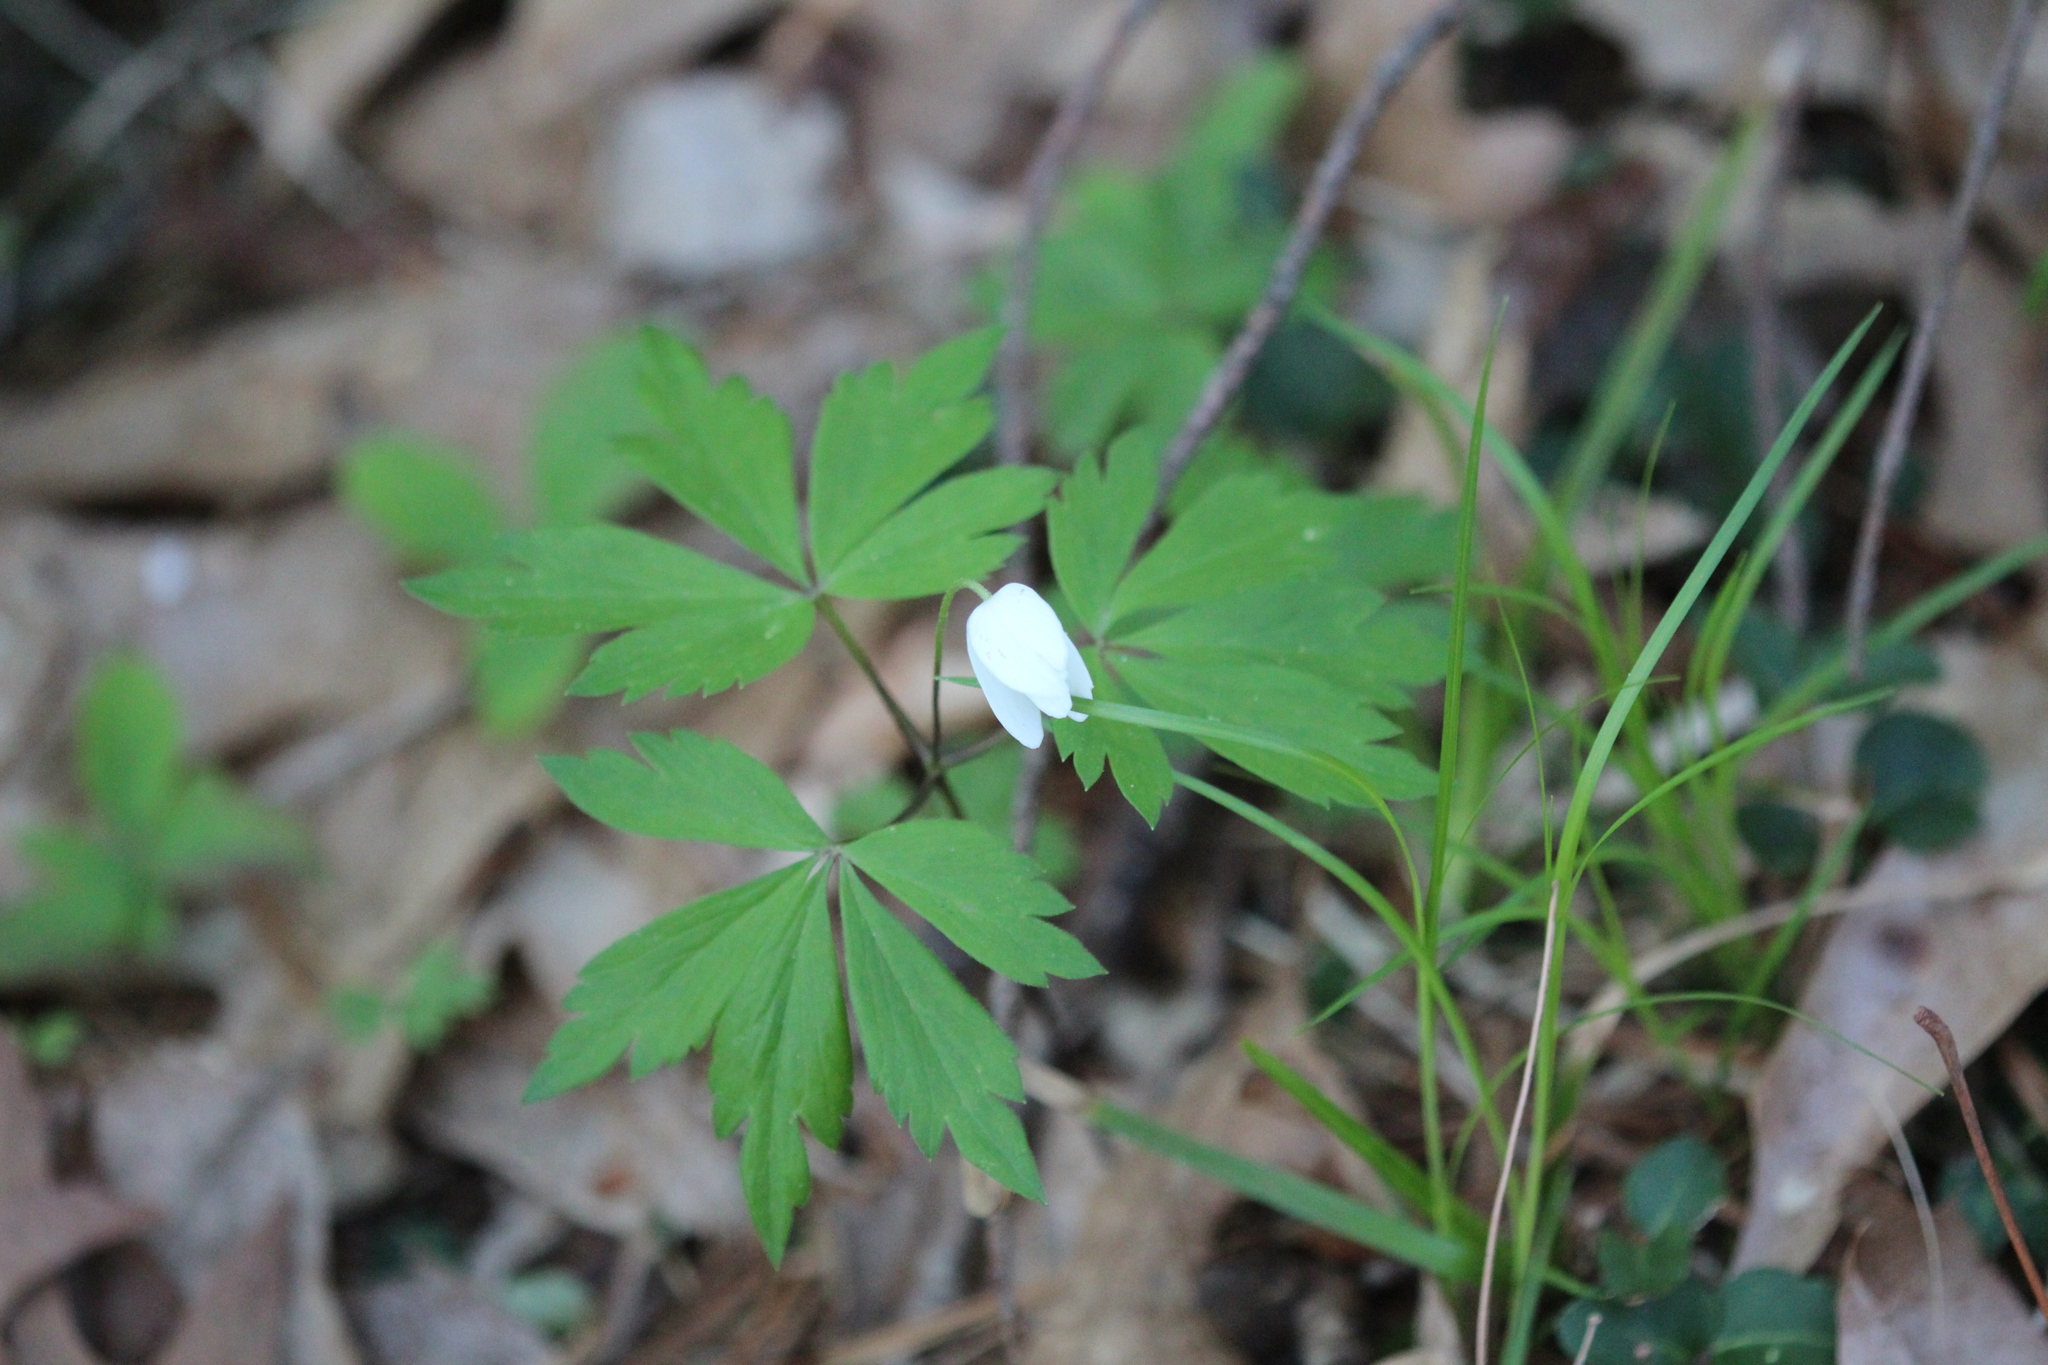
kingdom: Plantae
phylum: Tracheophyta
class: Magnoliopsida
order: Ranunculales
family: Ranunculaceae
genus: Anemone
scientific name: Anemone quinquefolia
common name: Wood anemone
